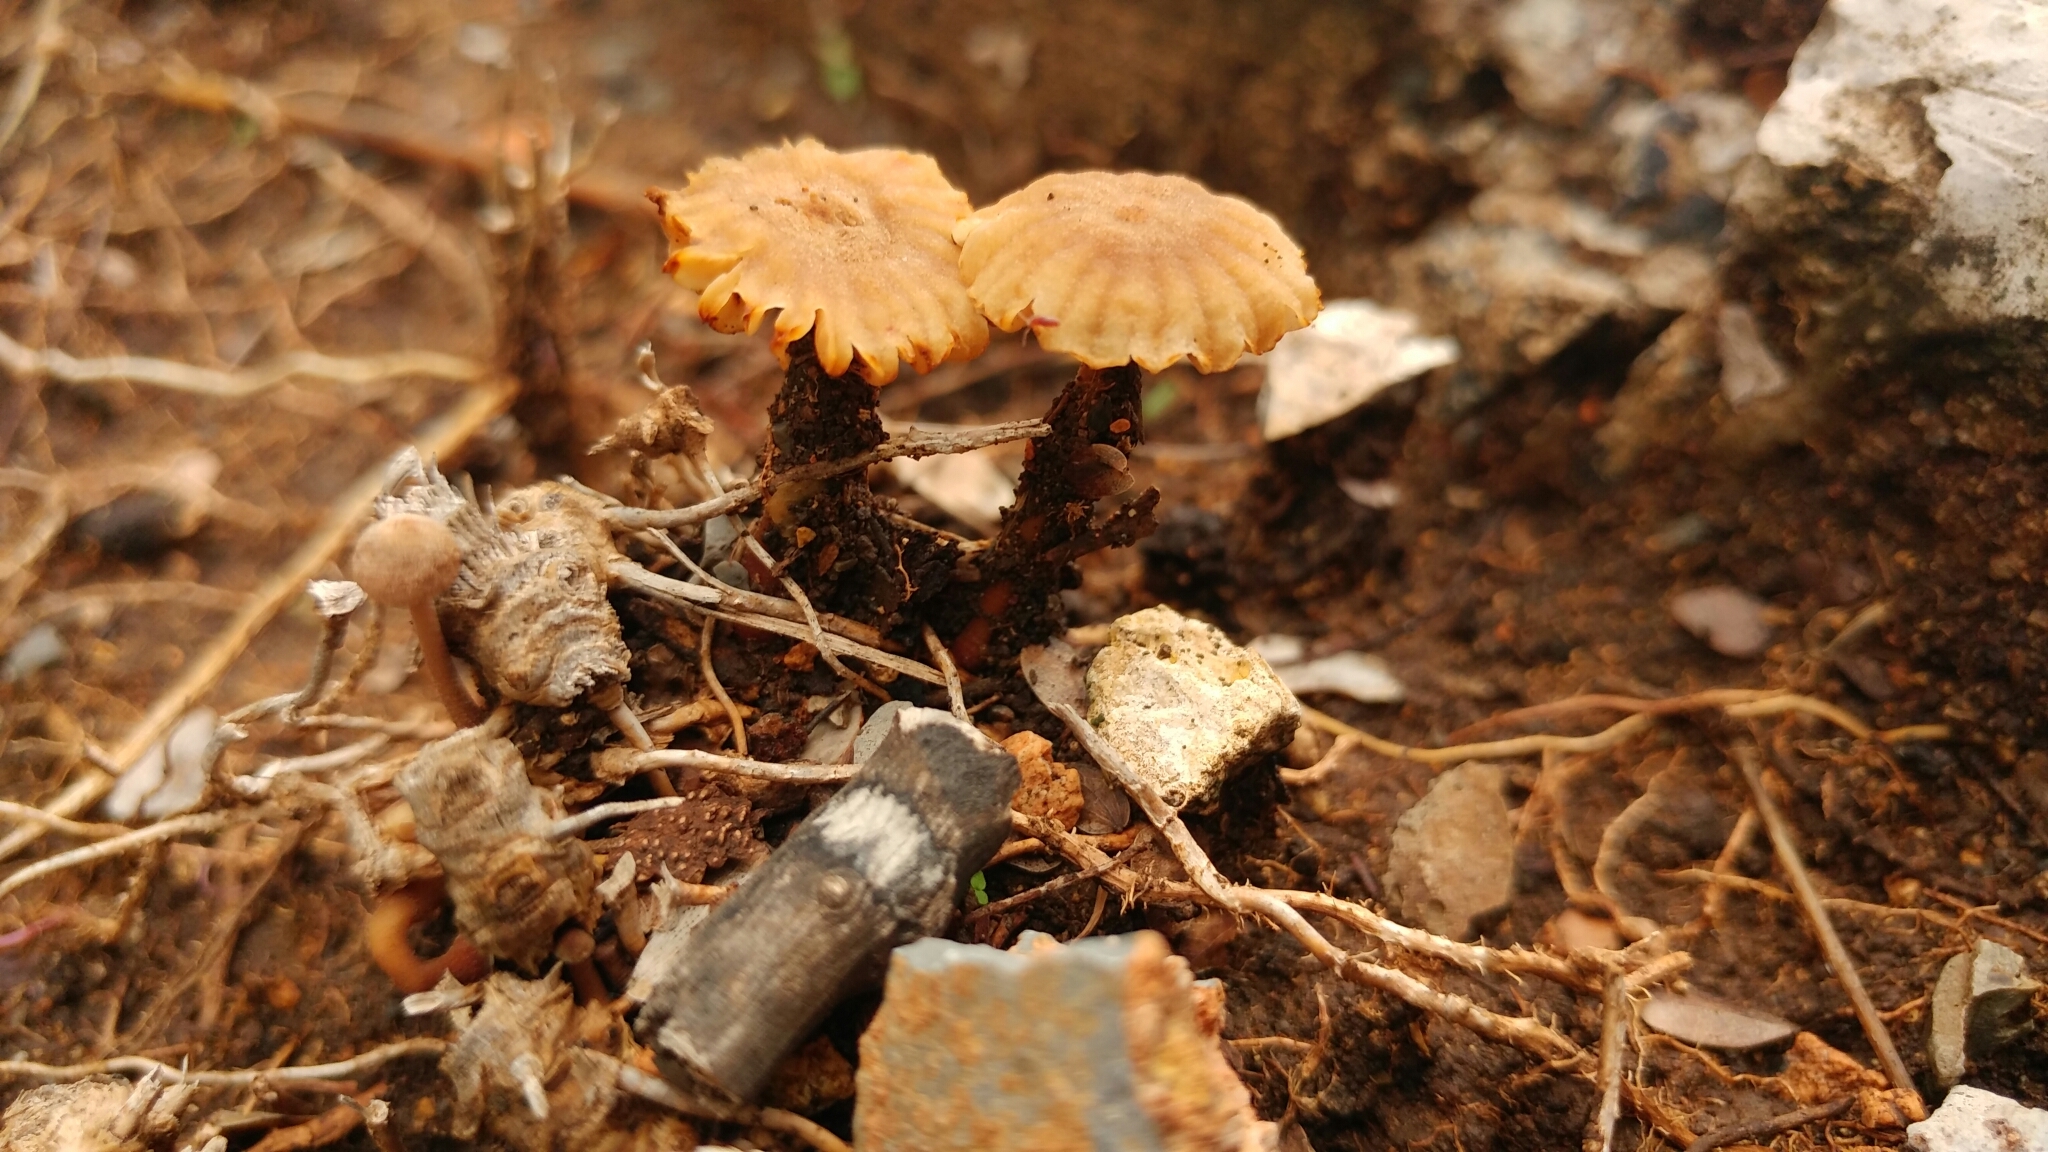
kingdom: Fungi
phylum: Basidiomycota
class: Agaricomycetes
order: Gloeophyllales
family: Gloeophyllaceae
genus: Heliocybe
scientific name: Heliocybe sulcata
